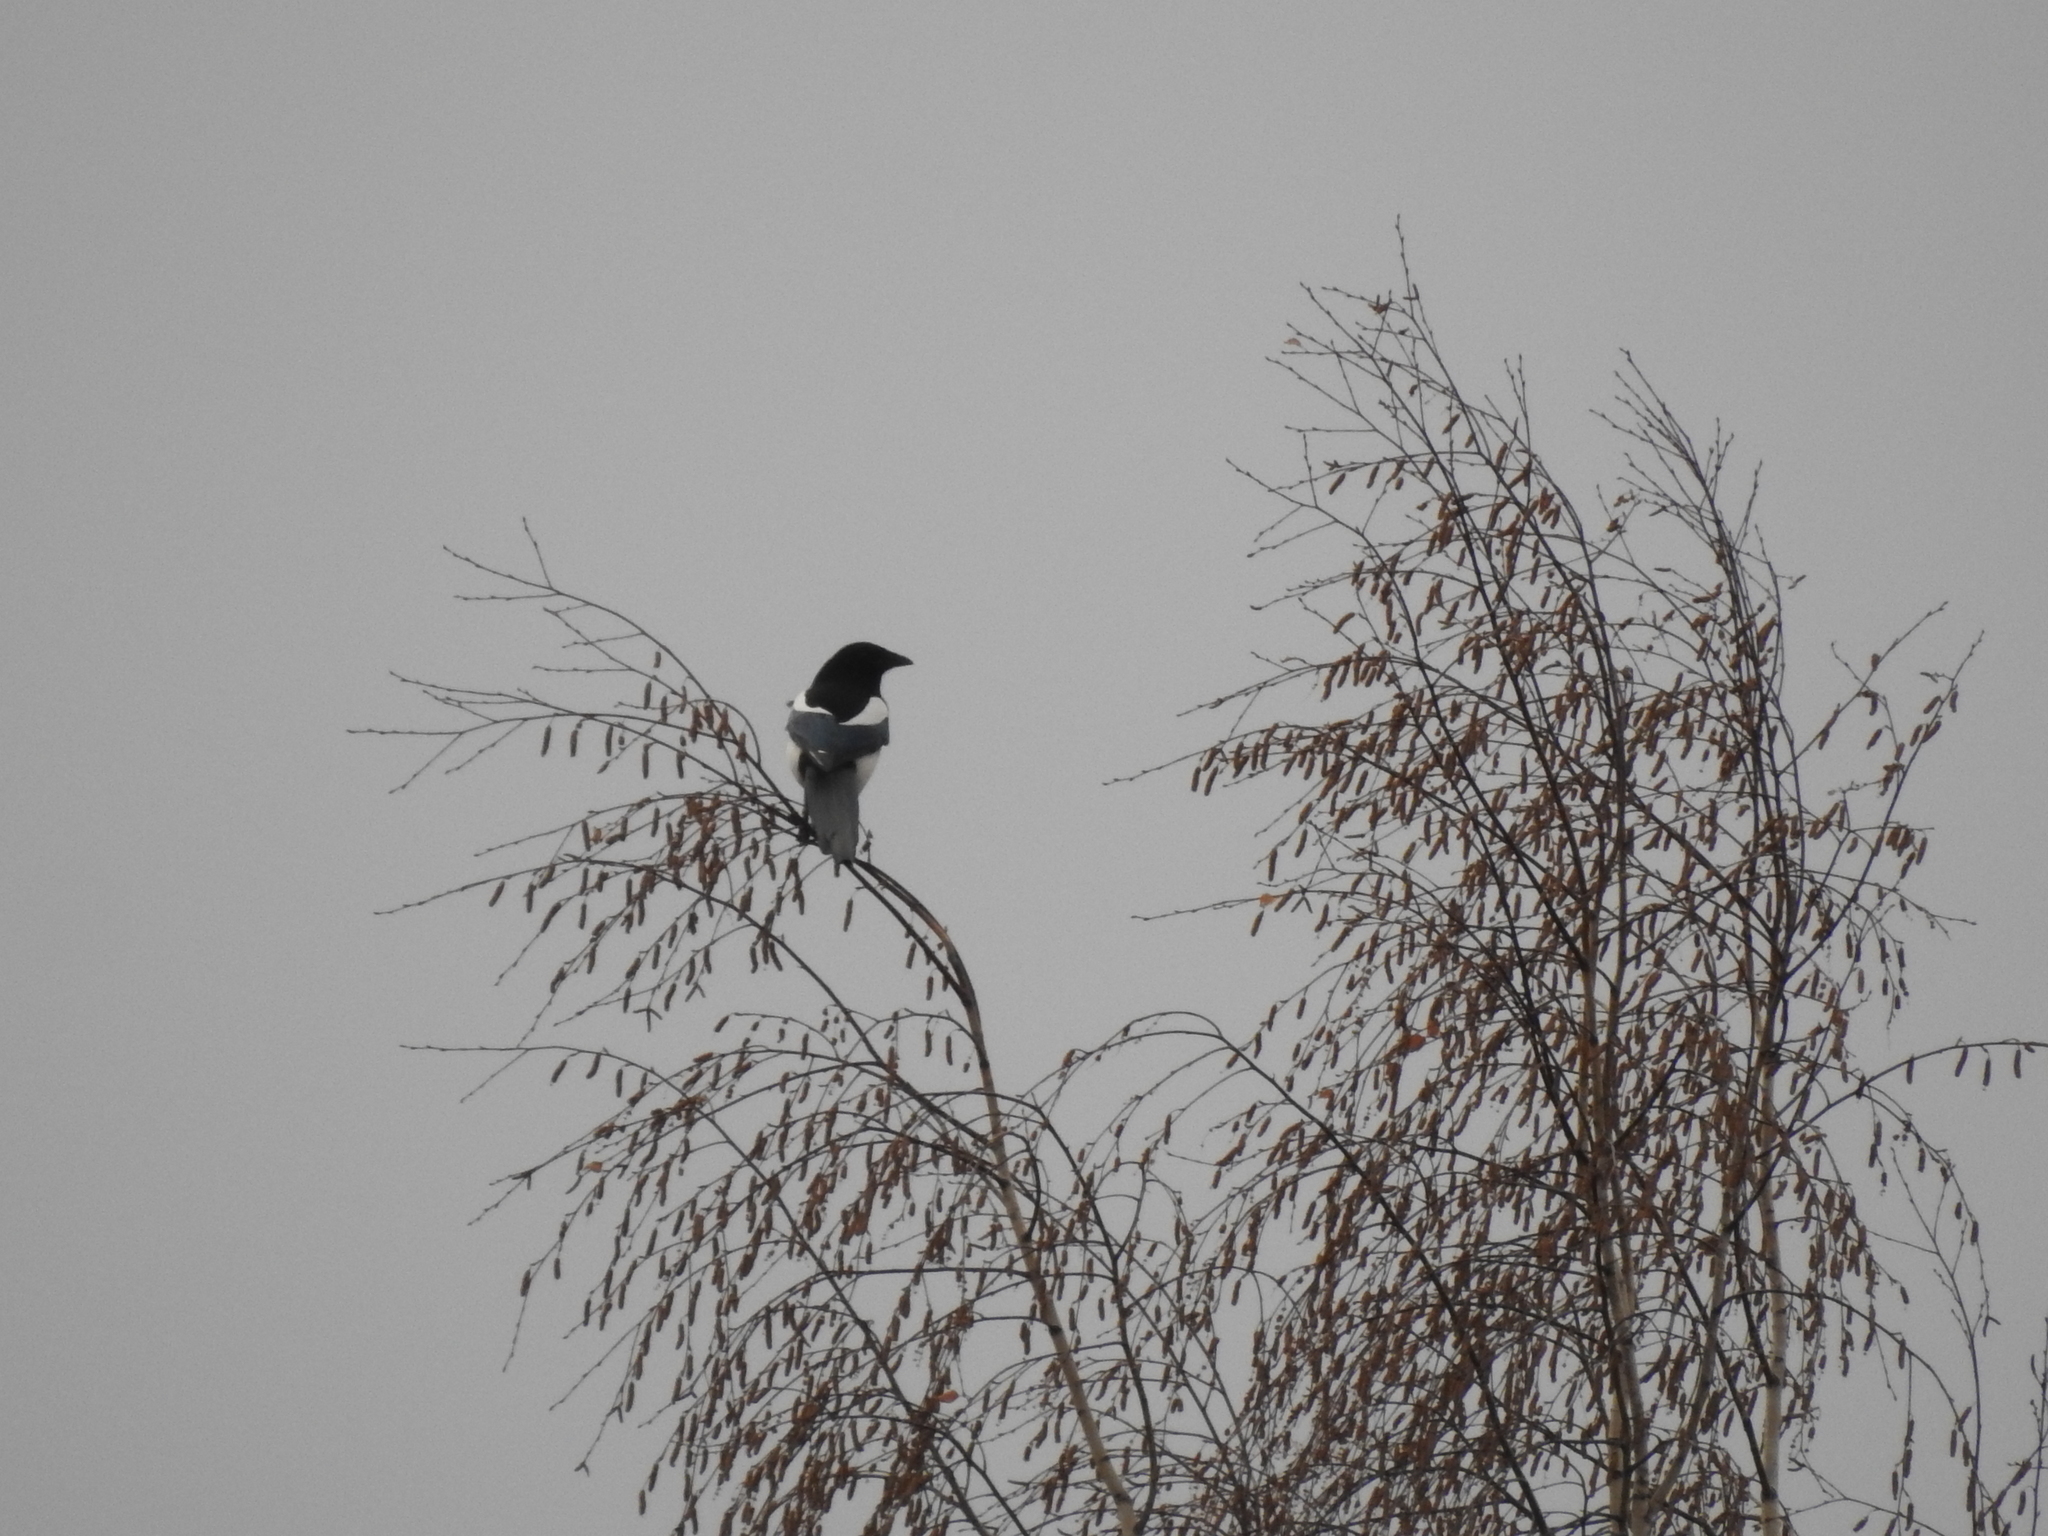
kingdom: Animalia
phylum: Chordata
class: Aves
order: Passeriformes
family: Corvidae
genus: Pica
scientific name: Pica pica
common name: Eurasian magpie
